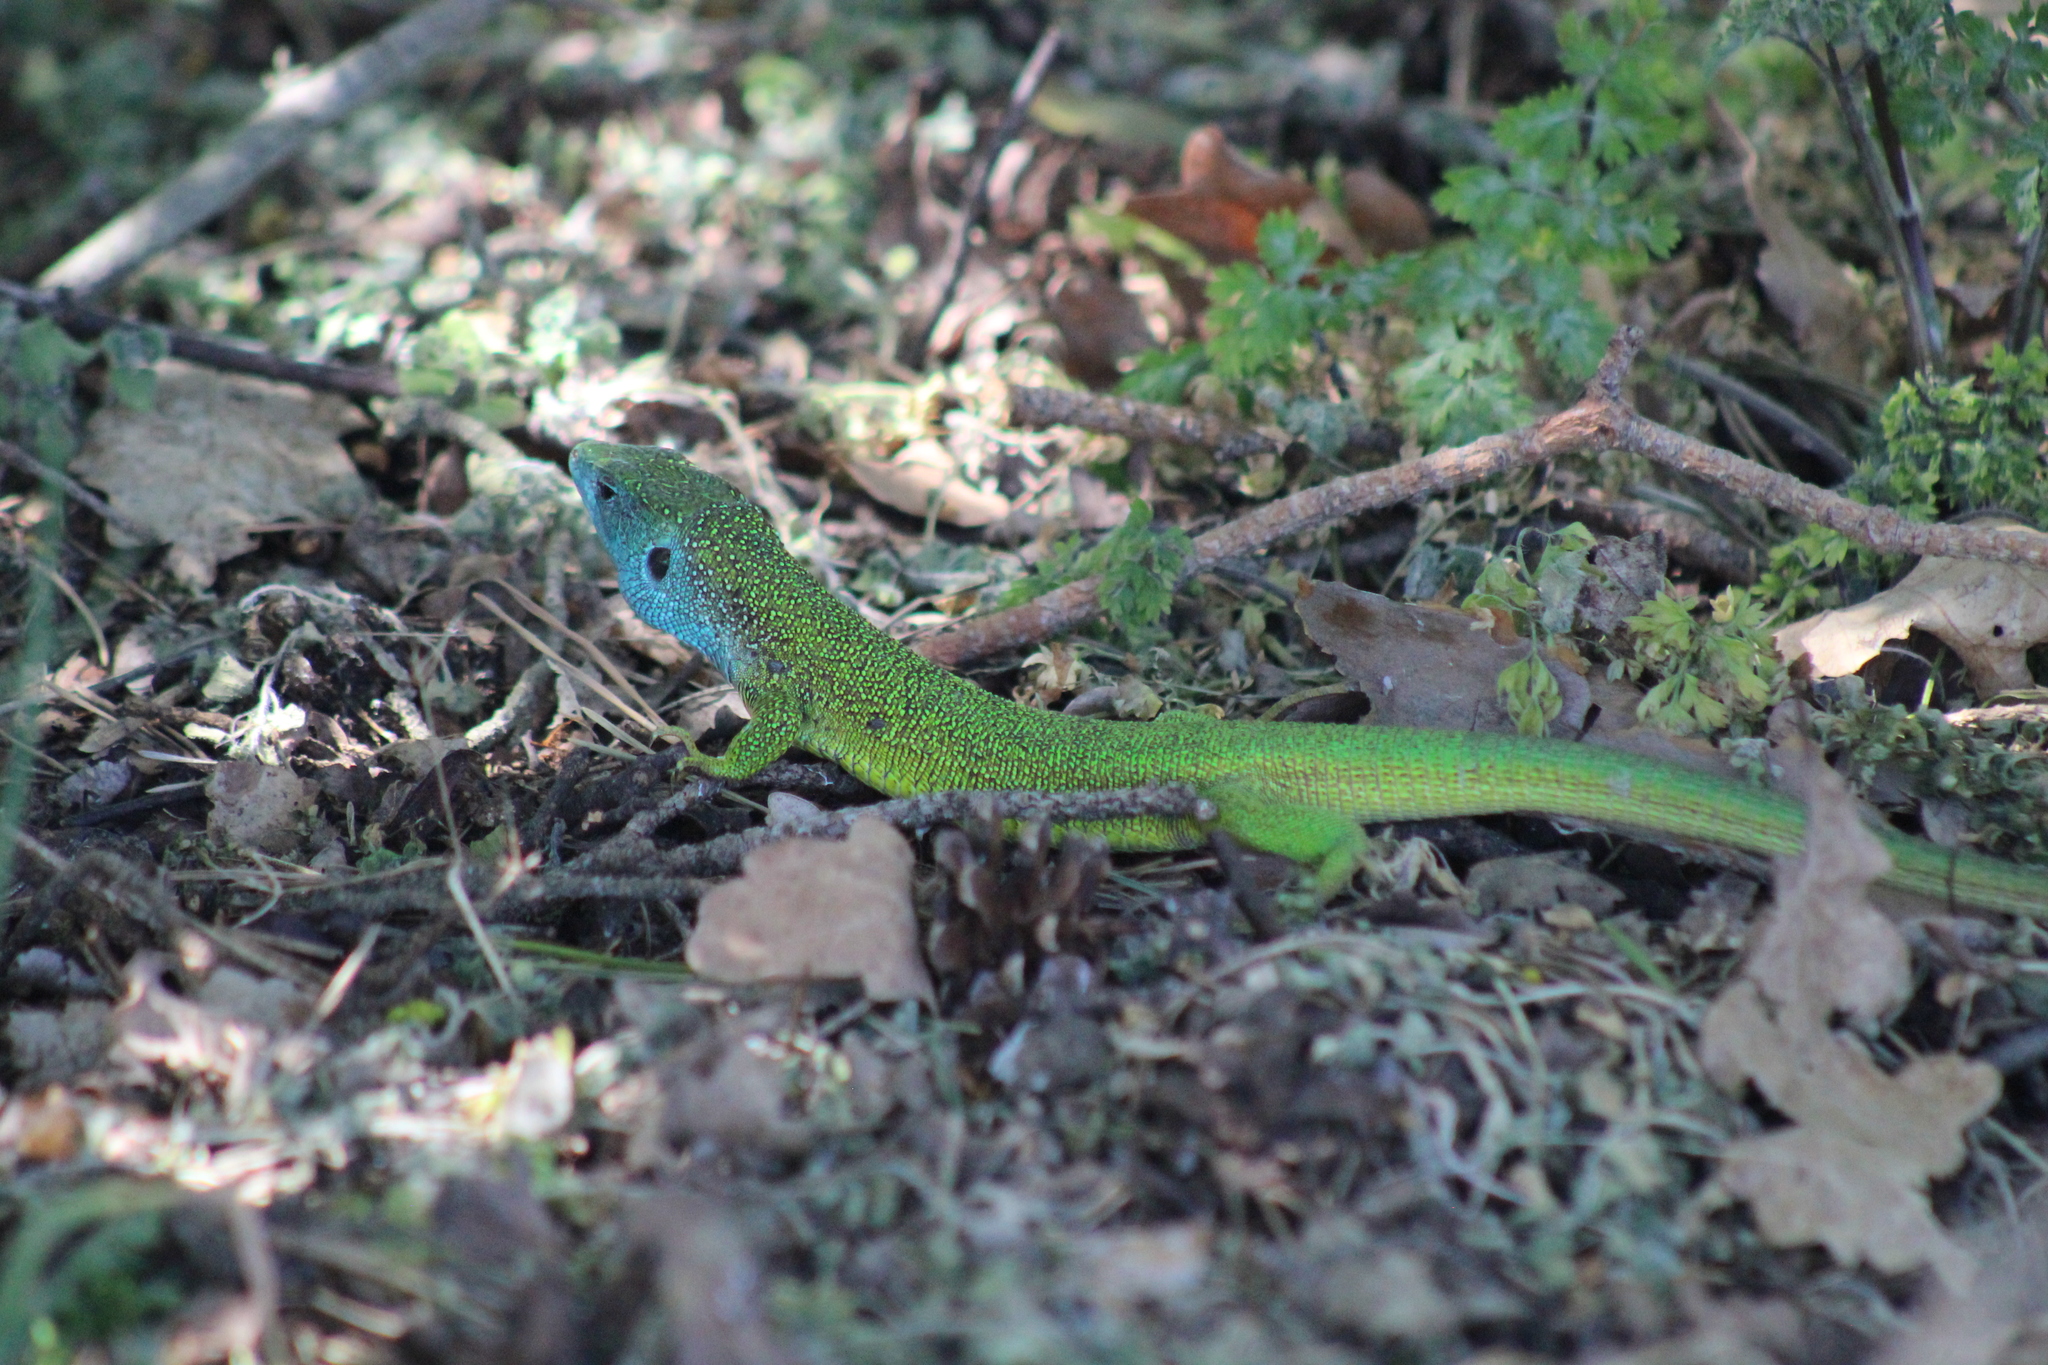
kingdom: Animalia
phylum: Chordata
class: Squamata
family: Lacertidae
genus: Lacerta
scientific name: Lacerta viridis
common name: European green lizard
